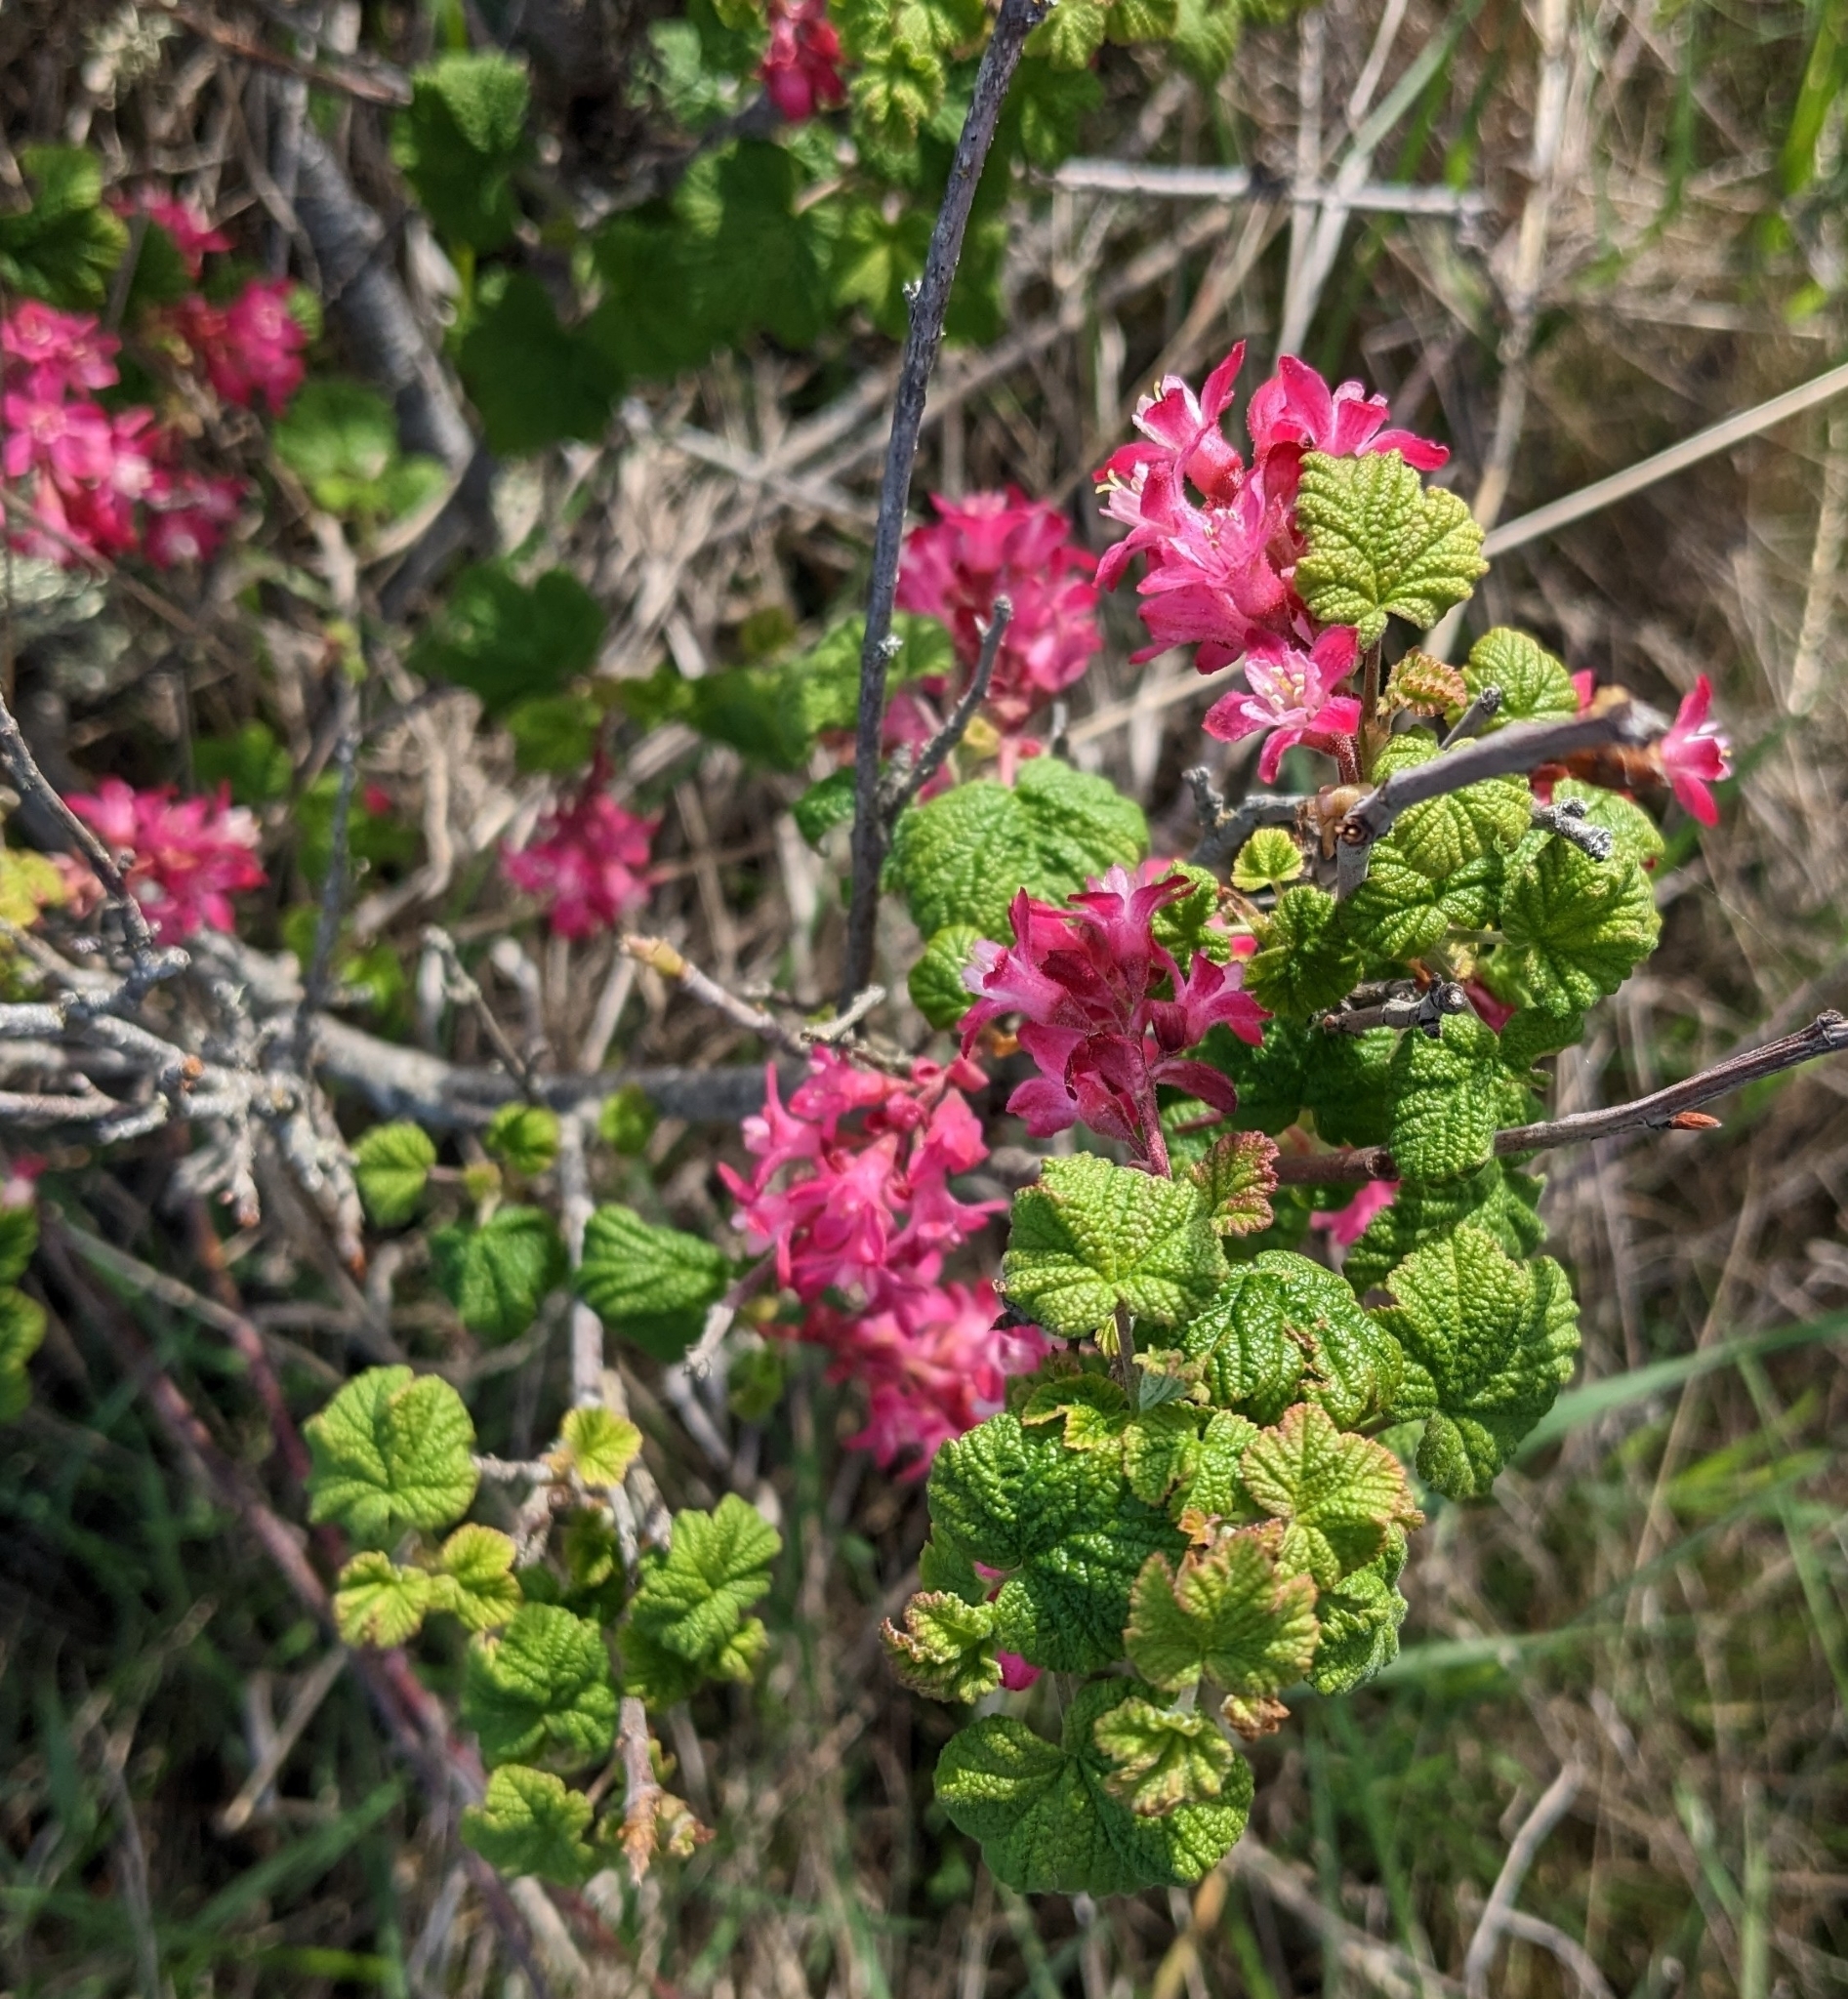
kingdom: Plantae
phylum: Tracheophyta
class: Magnoliopsida
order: Saxifragales
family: Grossulariaceae
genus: Ribes
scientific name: Ribes sanguineum
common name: Flowering currant
